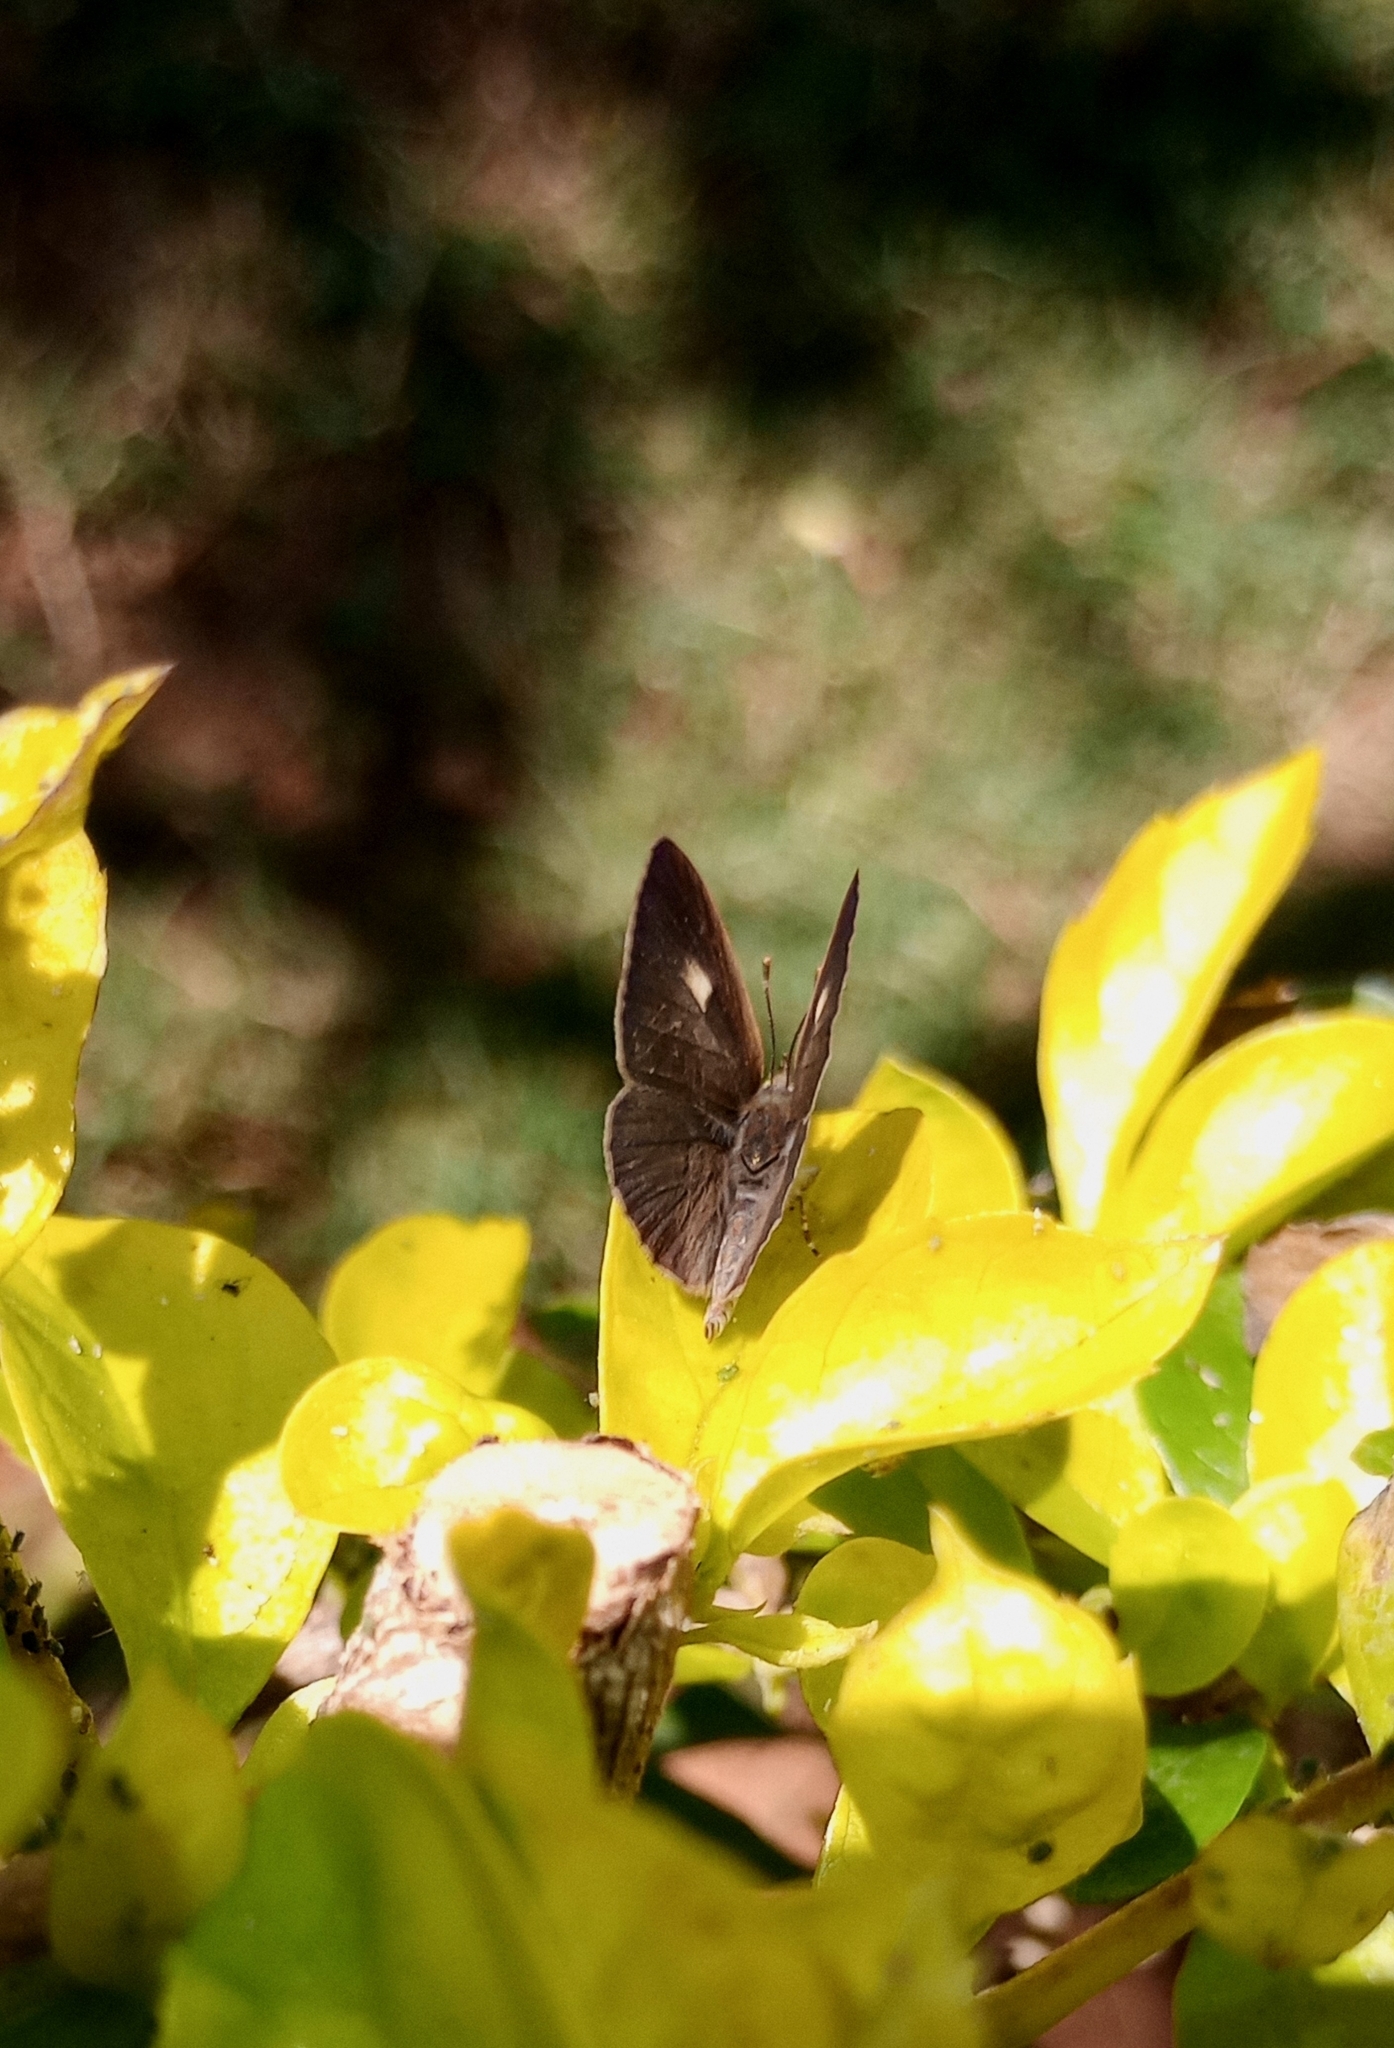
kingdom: Animalia
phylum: Arthropoda
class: Insecta
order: Lepidoptera
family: Lycaenidae
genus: Spalgis
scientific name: Spalgis epius
